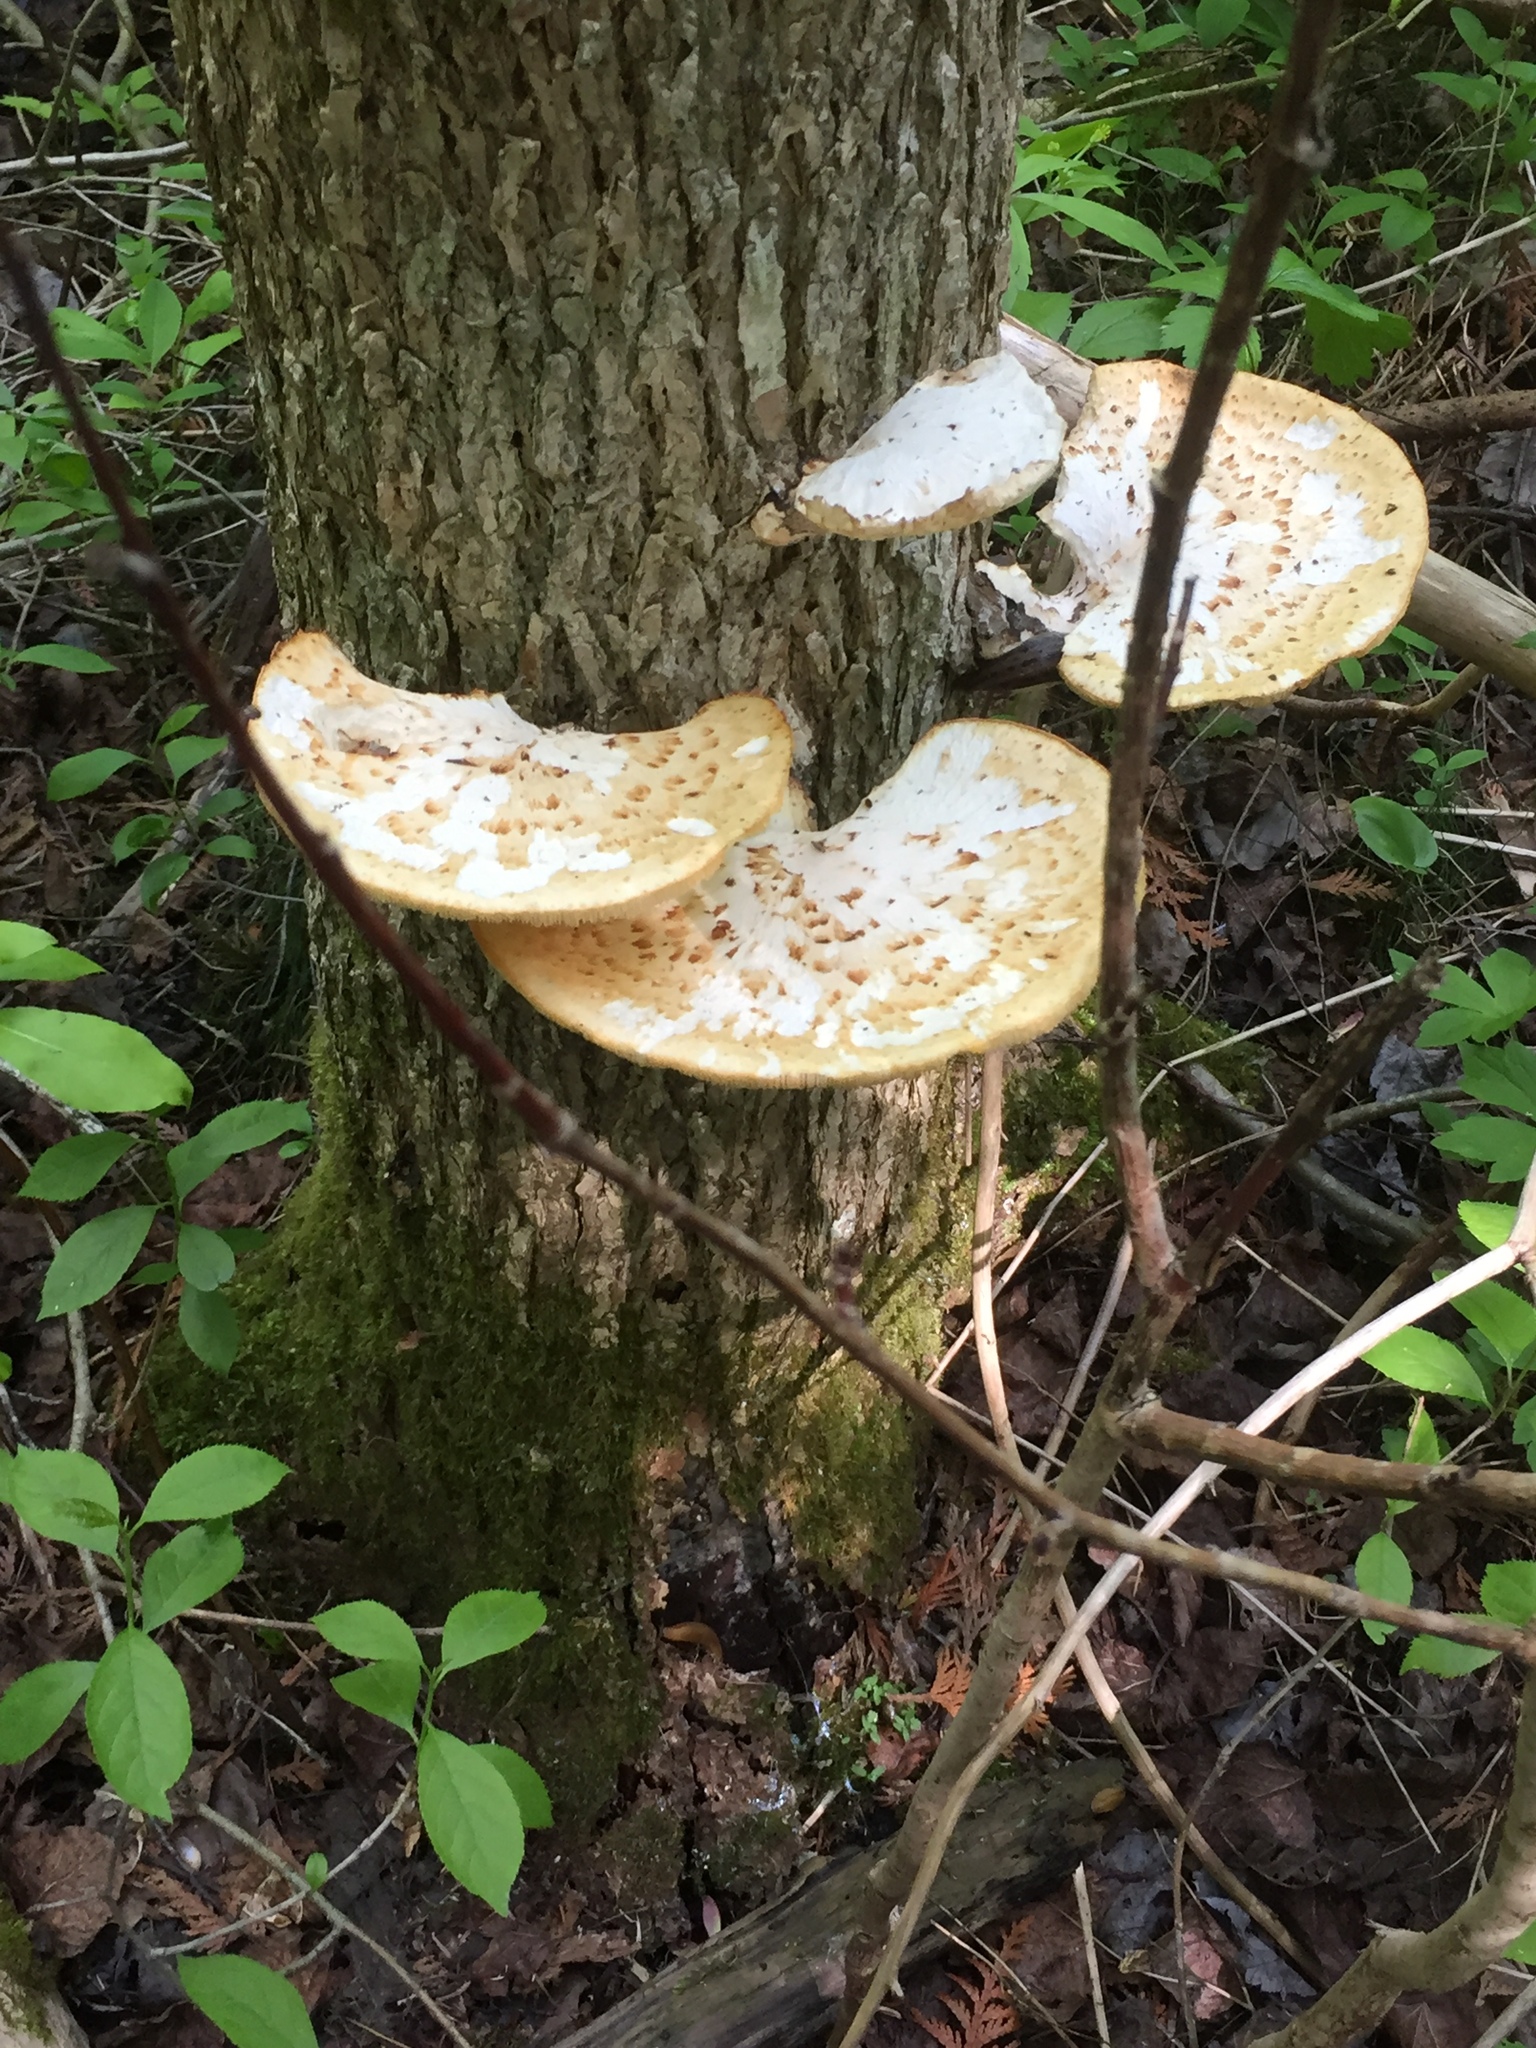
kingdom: Fungi
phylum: Basidiomycota
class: Agaricomycetes
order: Polyporales
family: Polyporaceae
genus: Cerioporus
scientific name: Cerioporus squamosus
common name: Dryad's saddle
